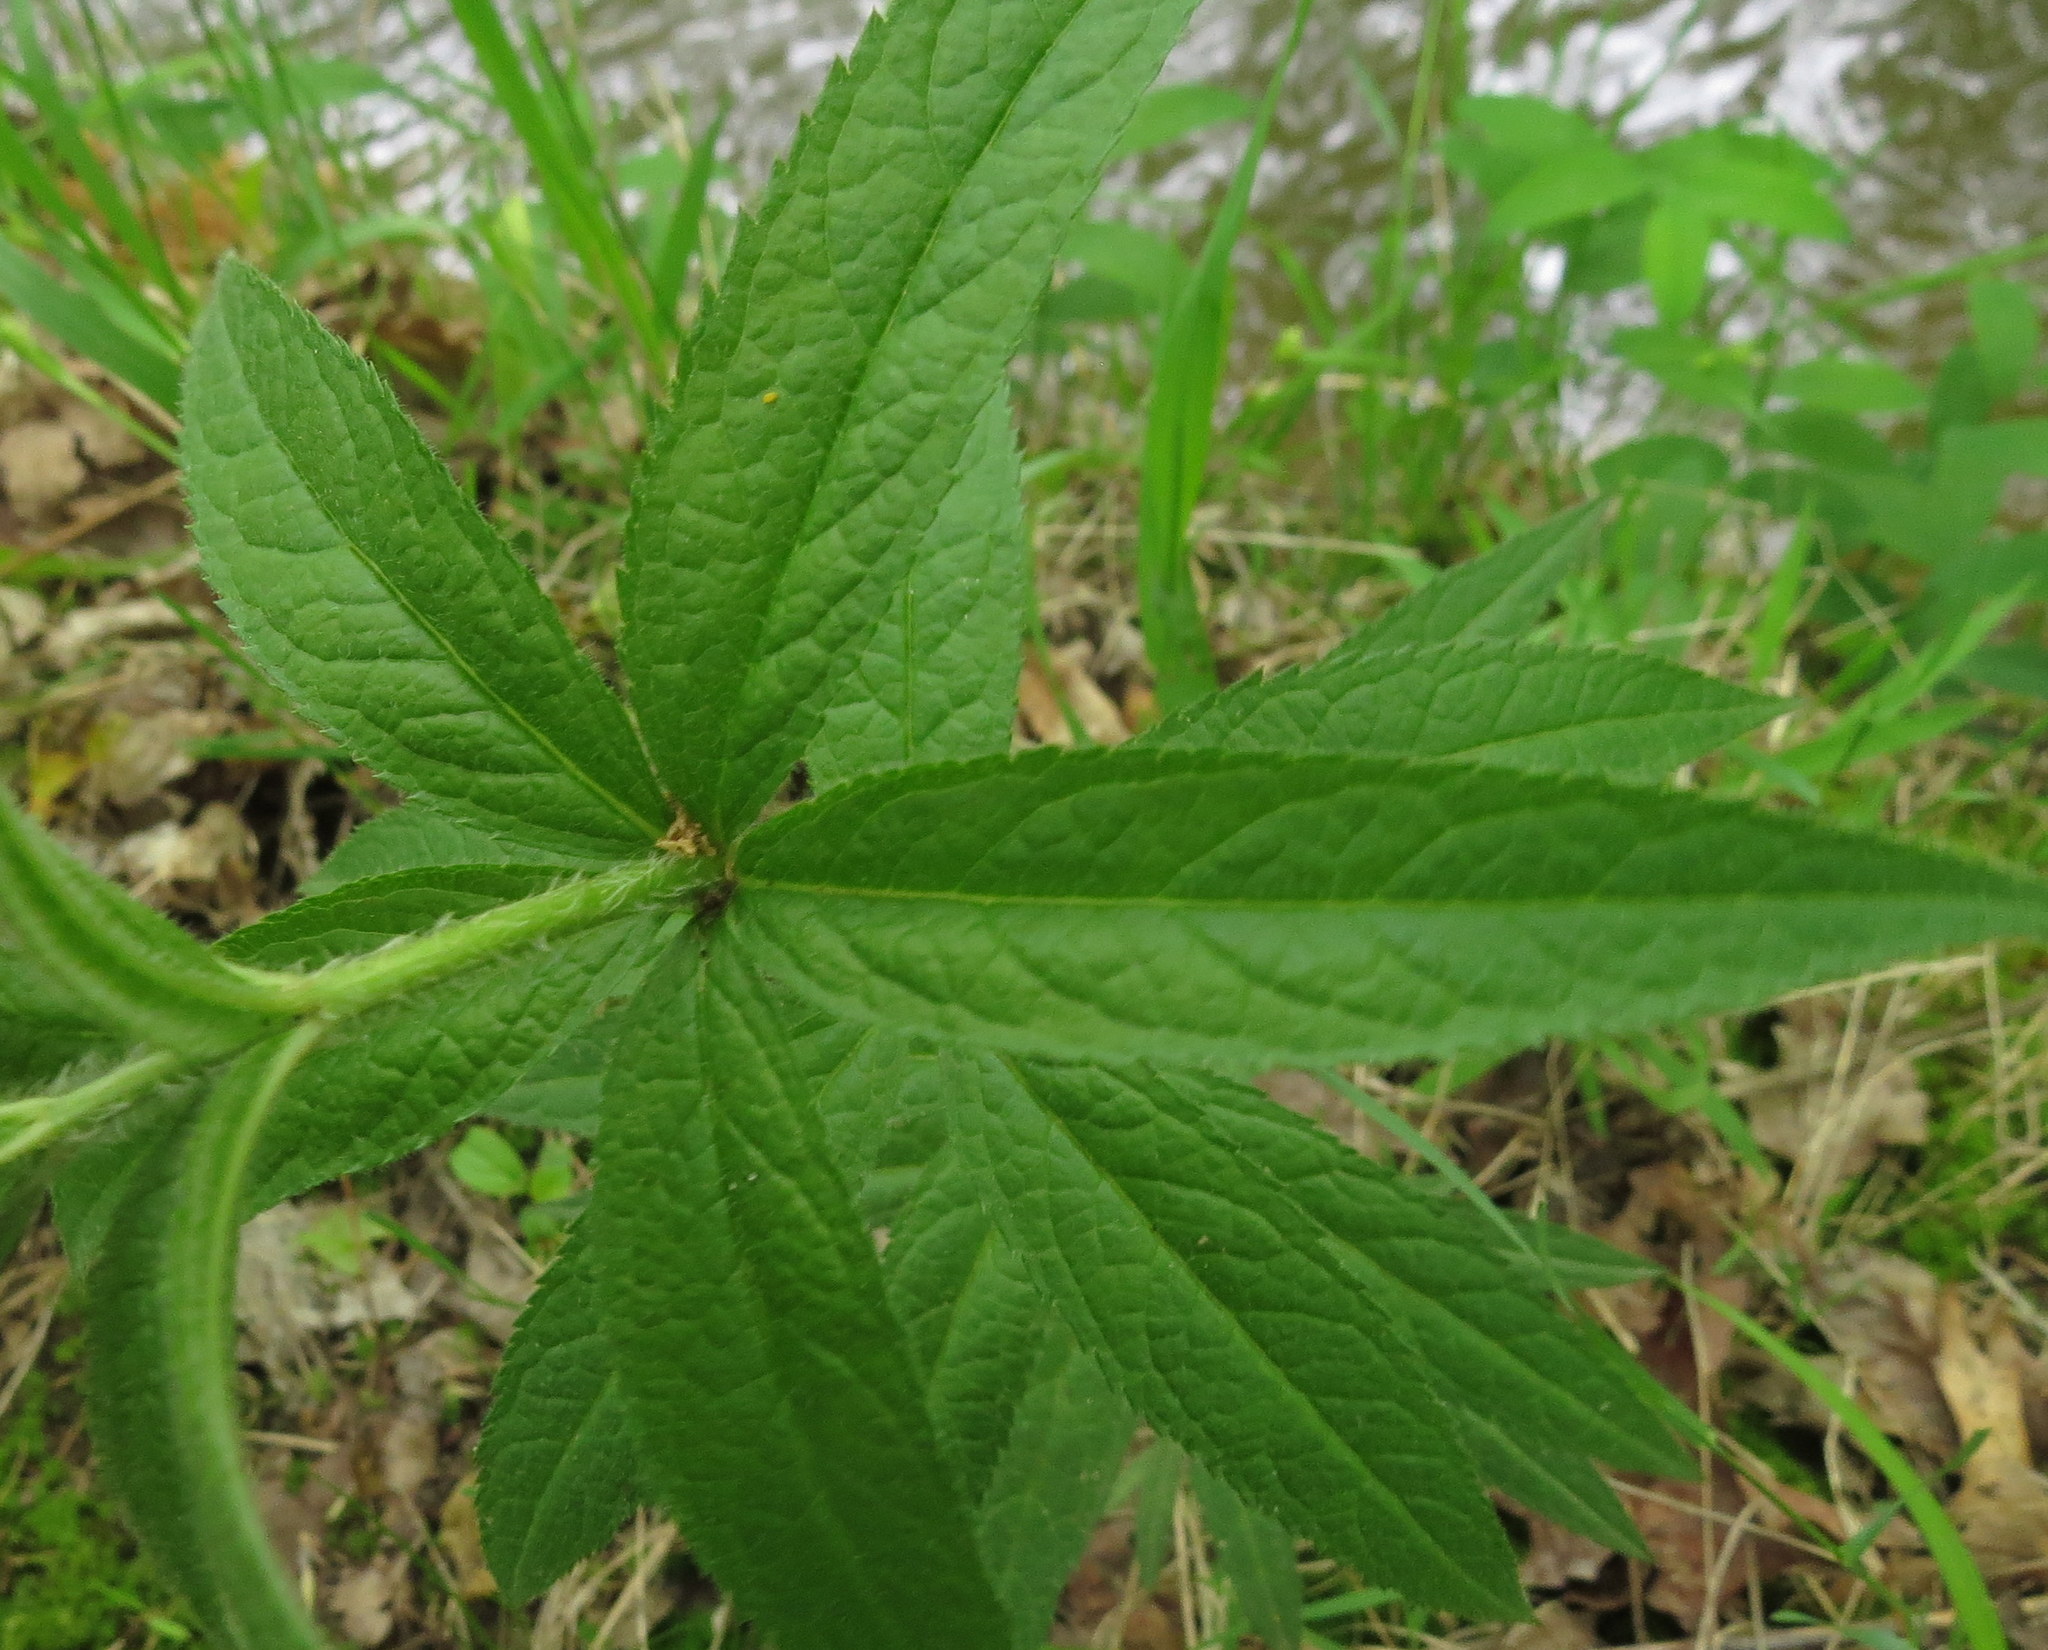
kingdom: Plantae
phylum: Tracheophyta
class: Magnoliopsida
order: Lamiales
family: Plantaginaceae
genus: Veronicastrum
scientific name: Veronicastrum virginicum
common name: Blackroot
